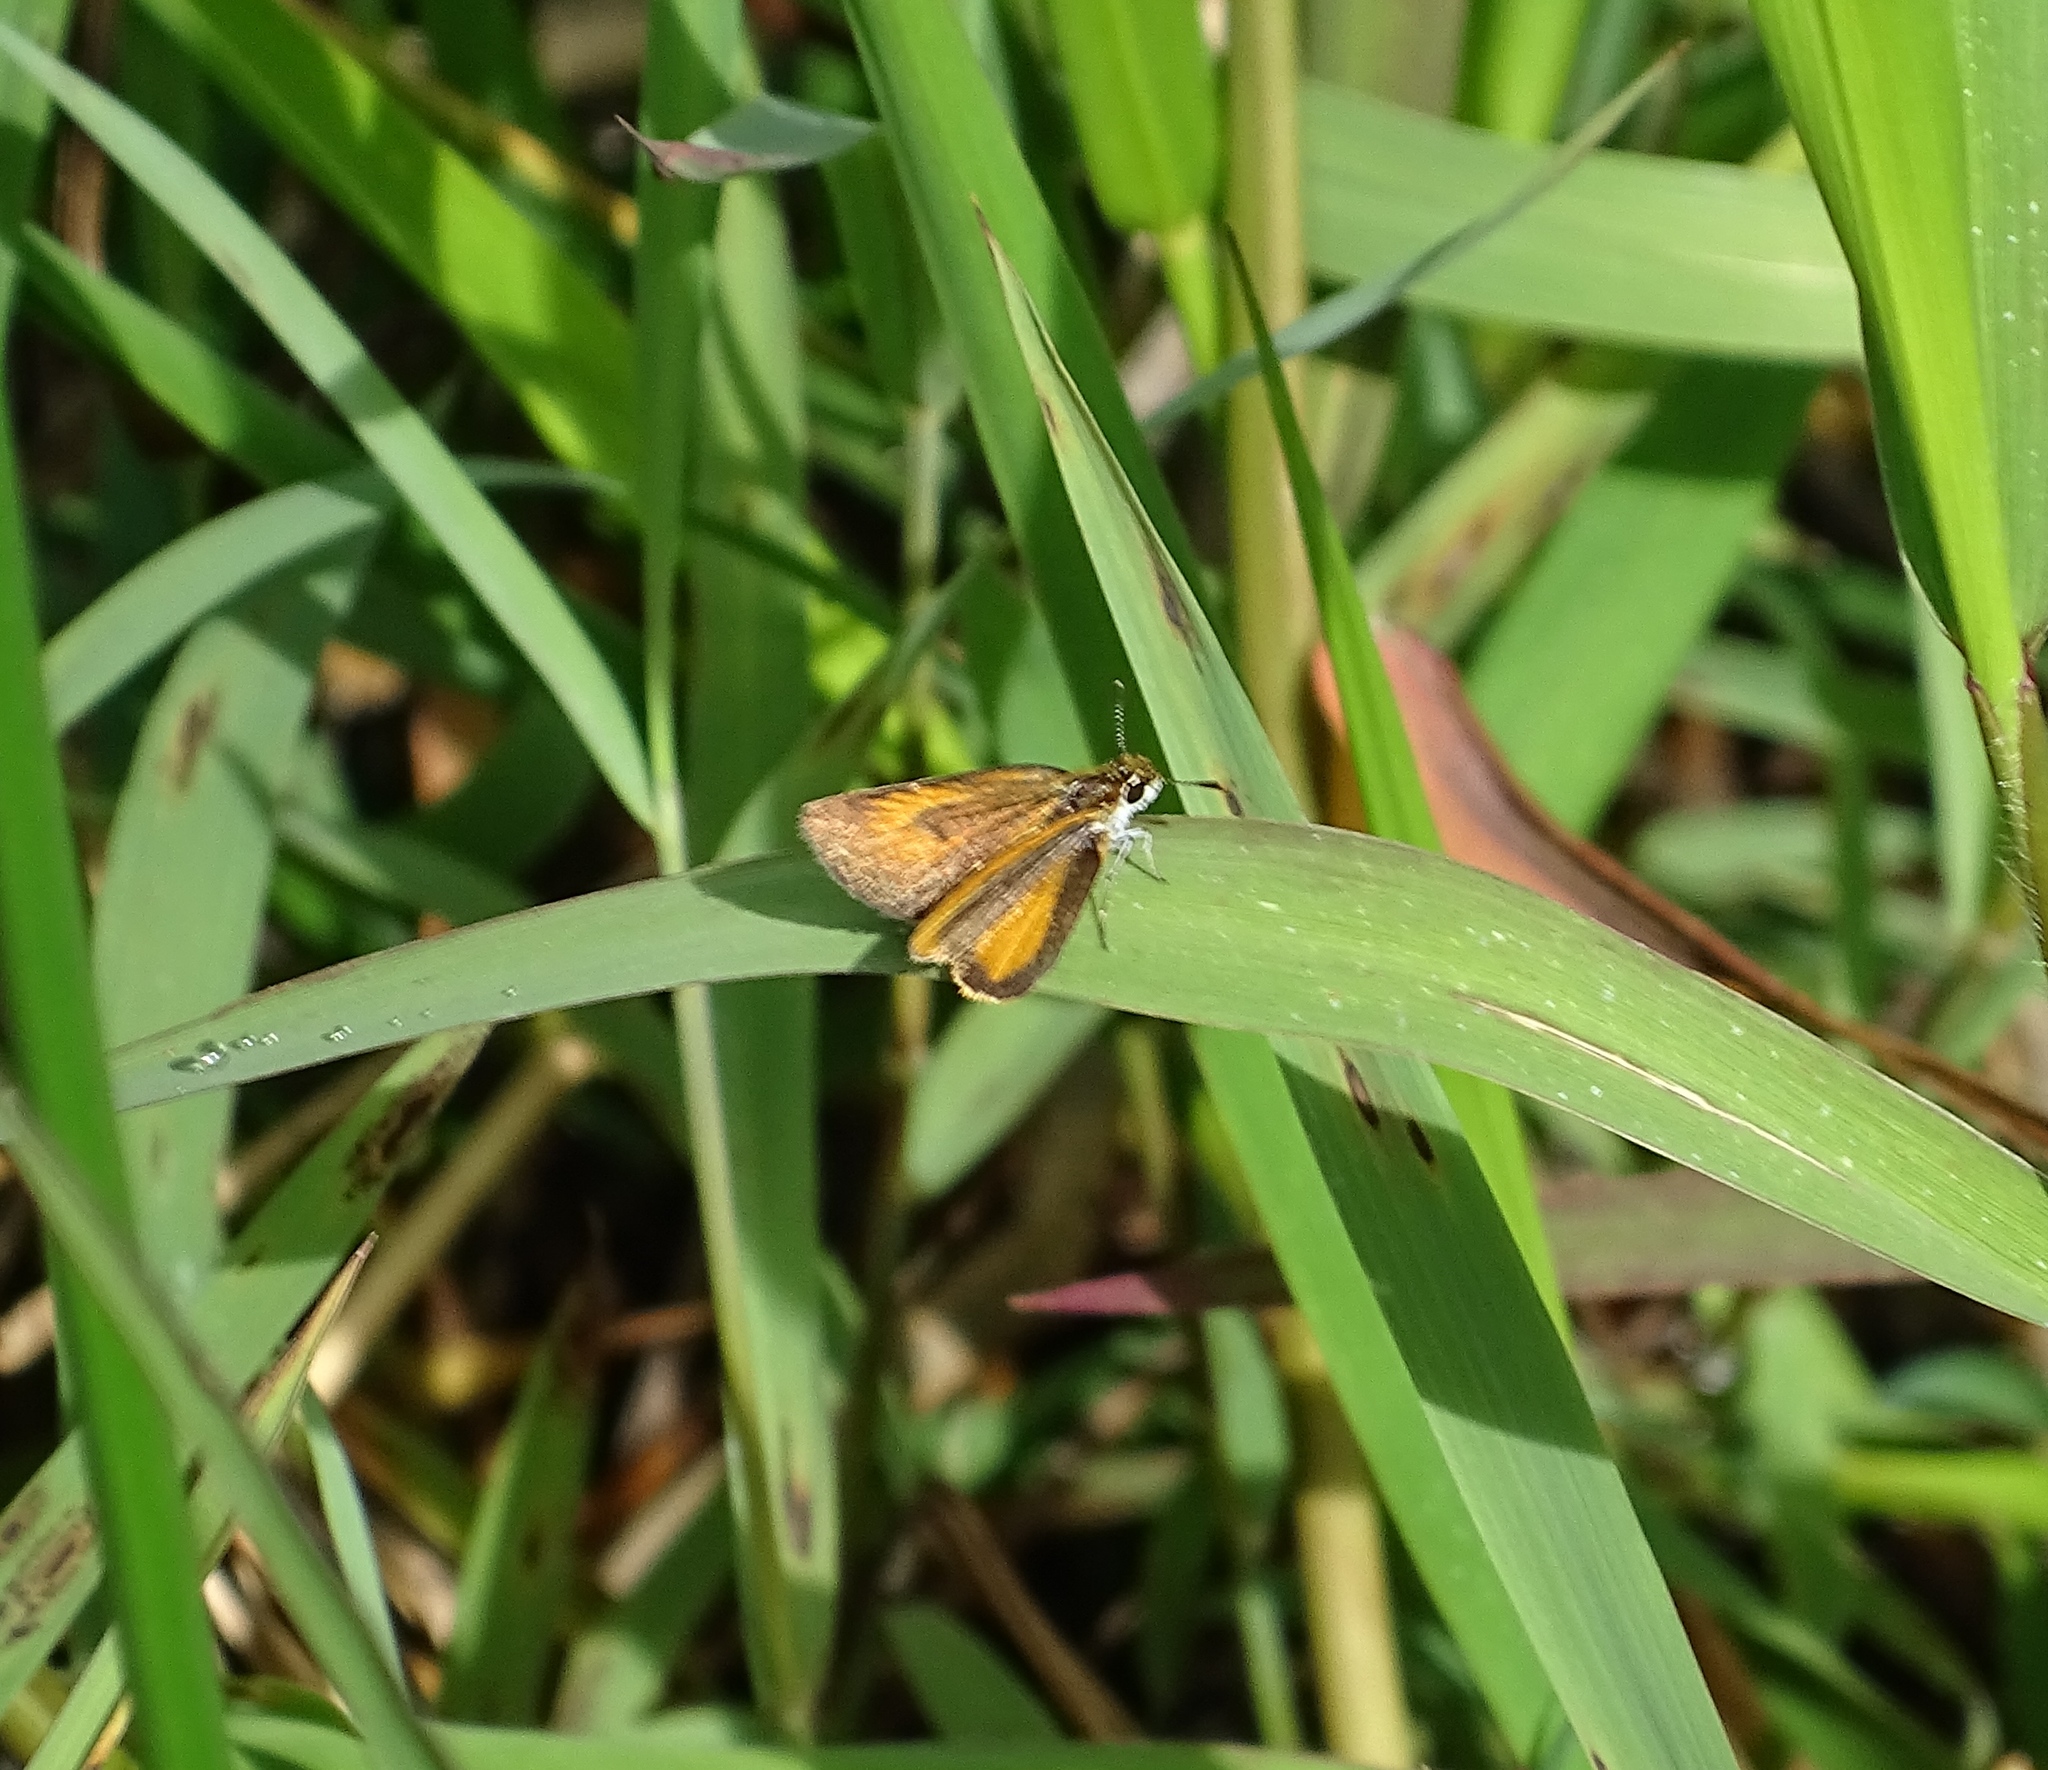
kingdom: Animalia
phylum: Arthropoda
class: Insecta
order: Lepidoptera
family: Hesperiidae
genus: Ancyloxypha
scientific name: Ancyloxypha numitor
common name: Least skipper
